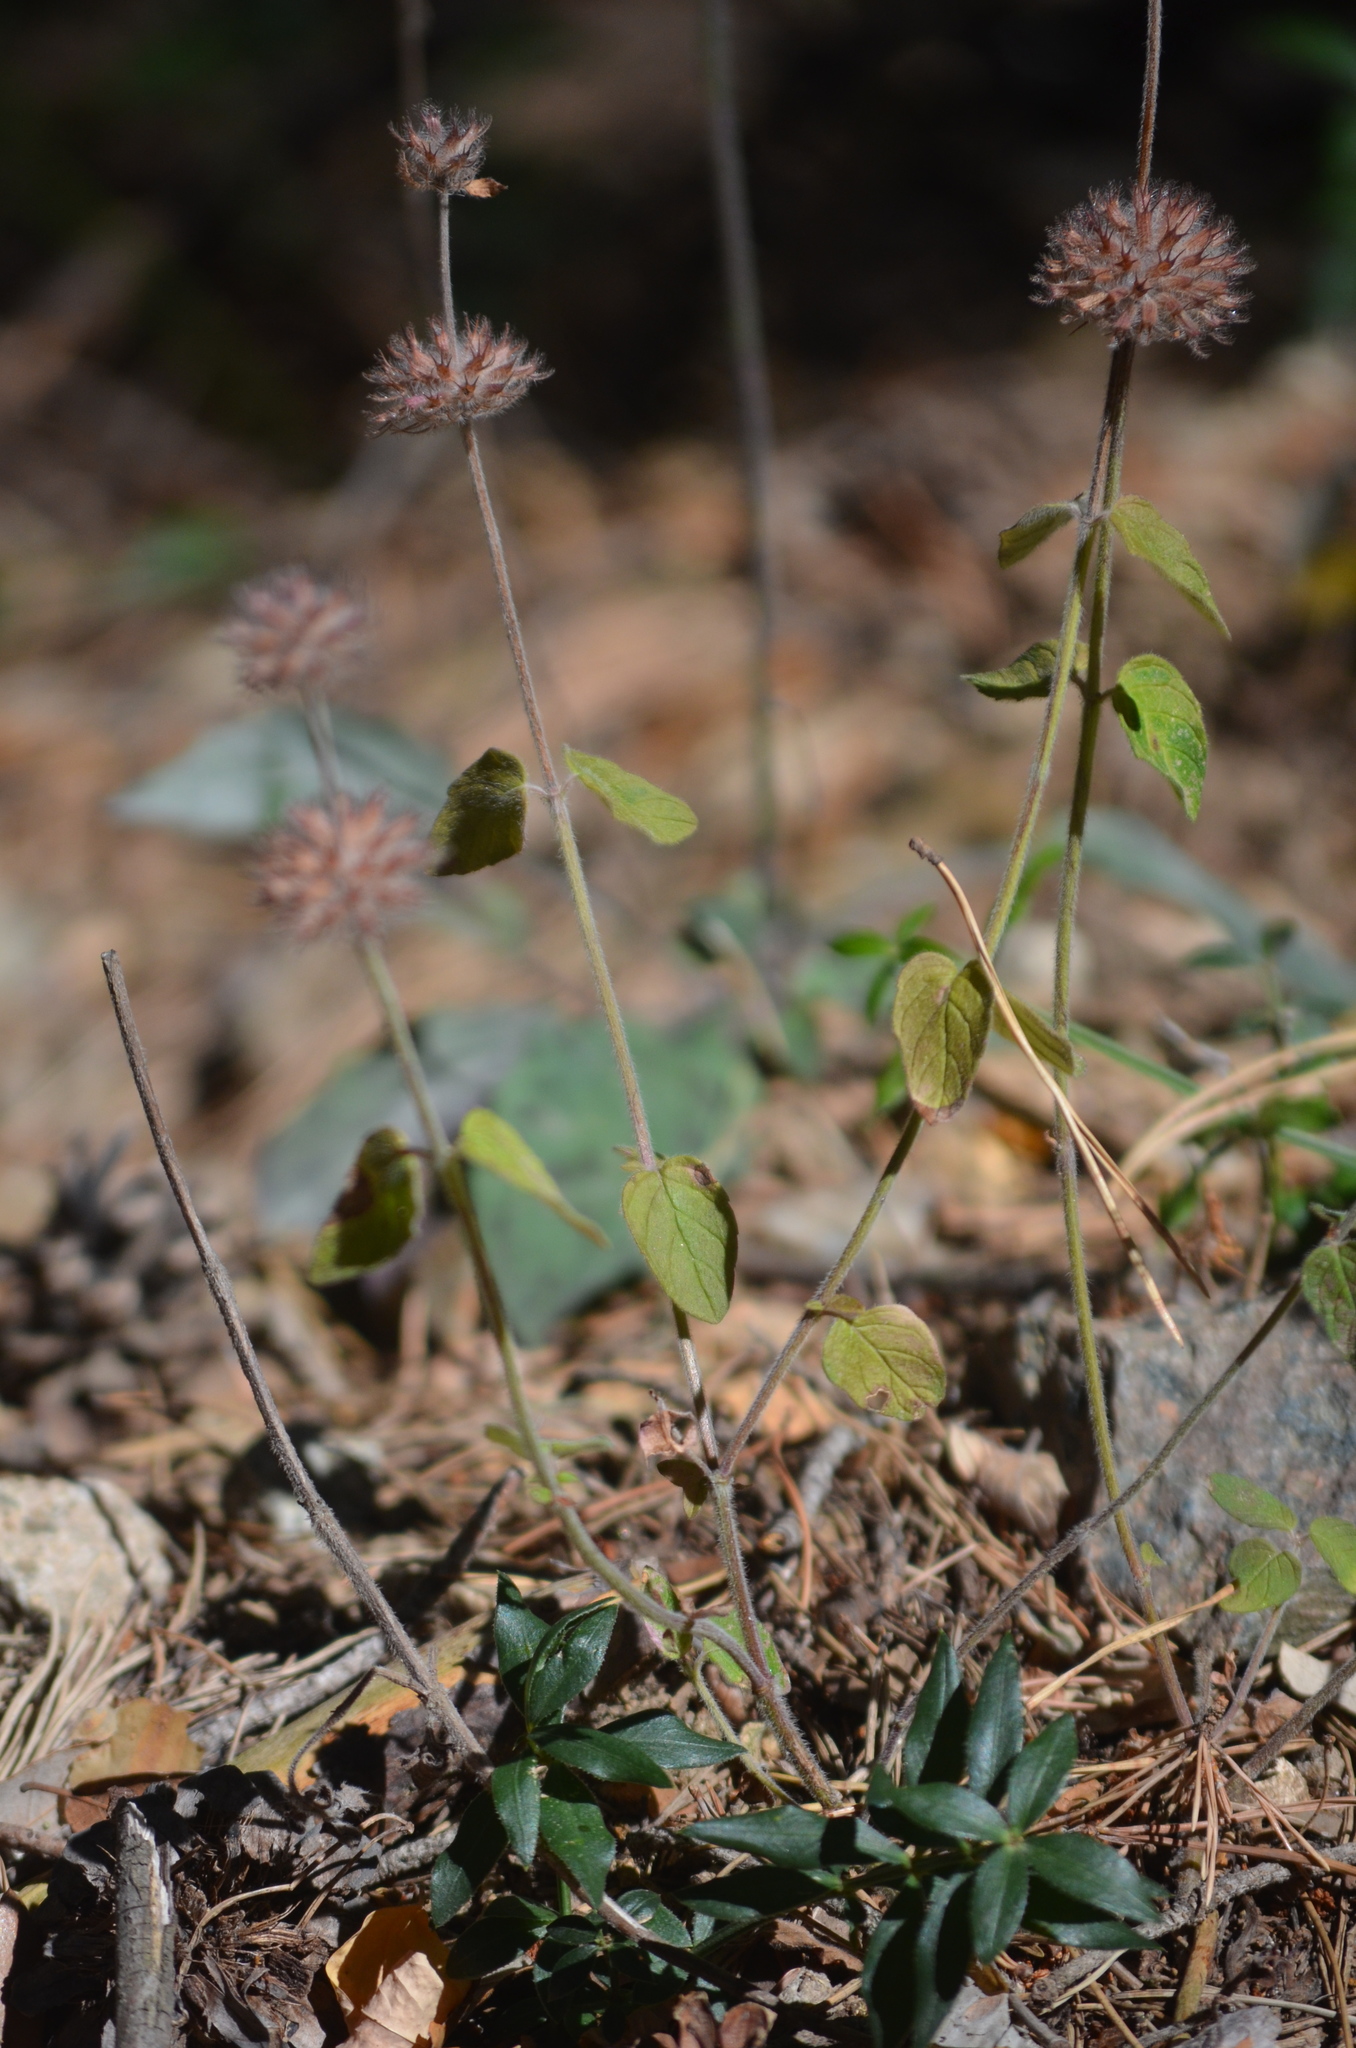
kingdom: Plantae
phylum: Tracheophyta
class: Magnoliopsida
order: Lamiales
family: Lamiaceae
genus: Clinopodium
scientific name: Clinopodium vulgare
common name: Wild basil
